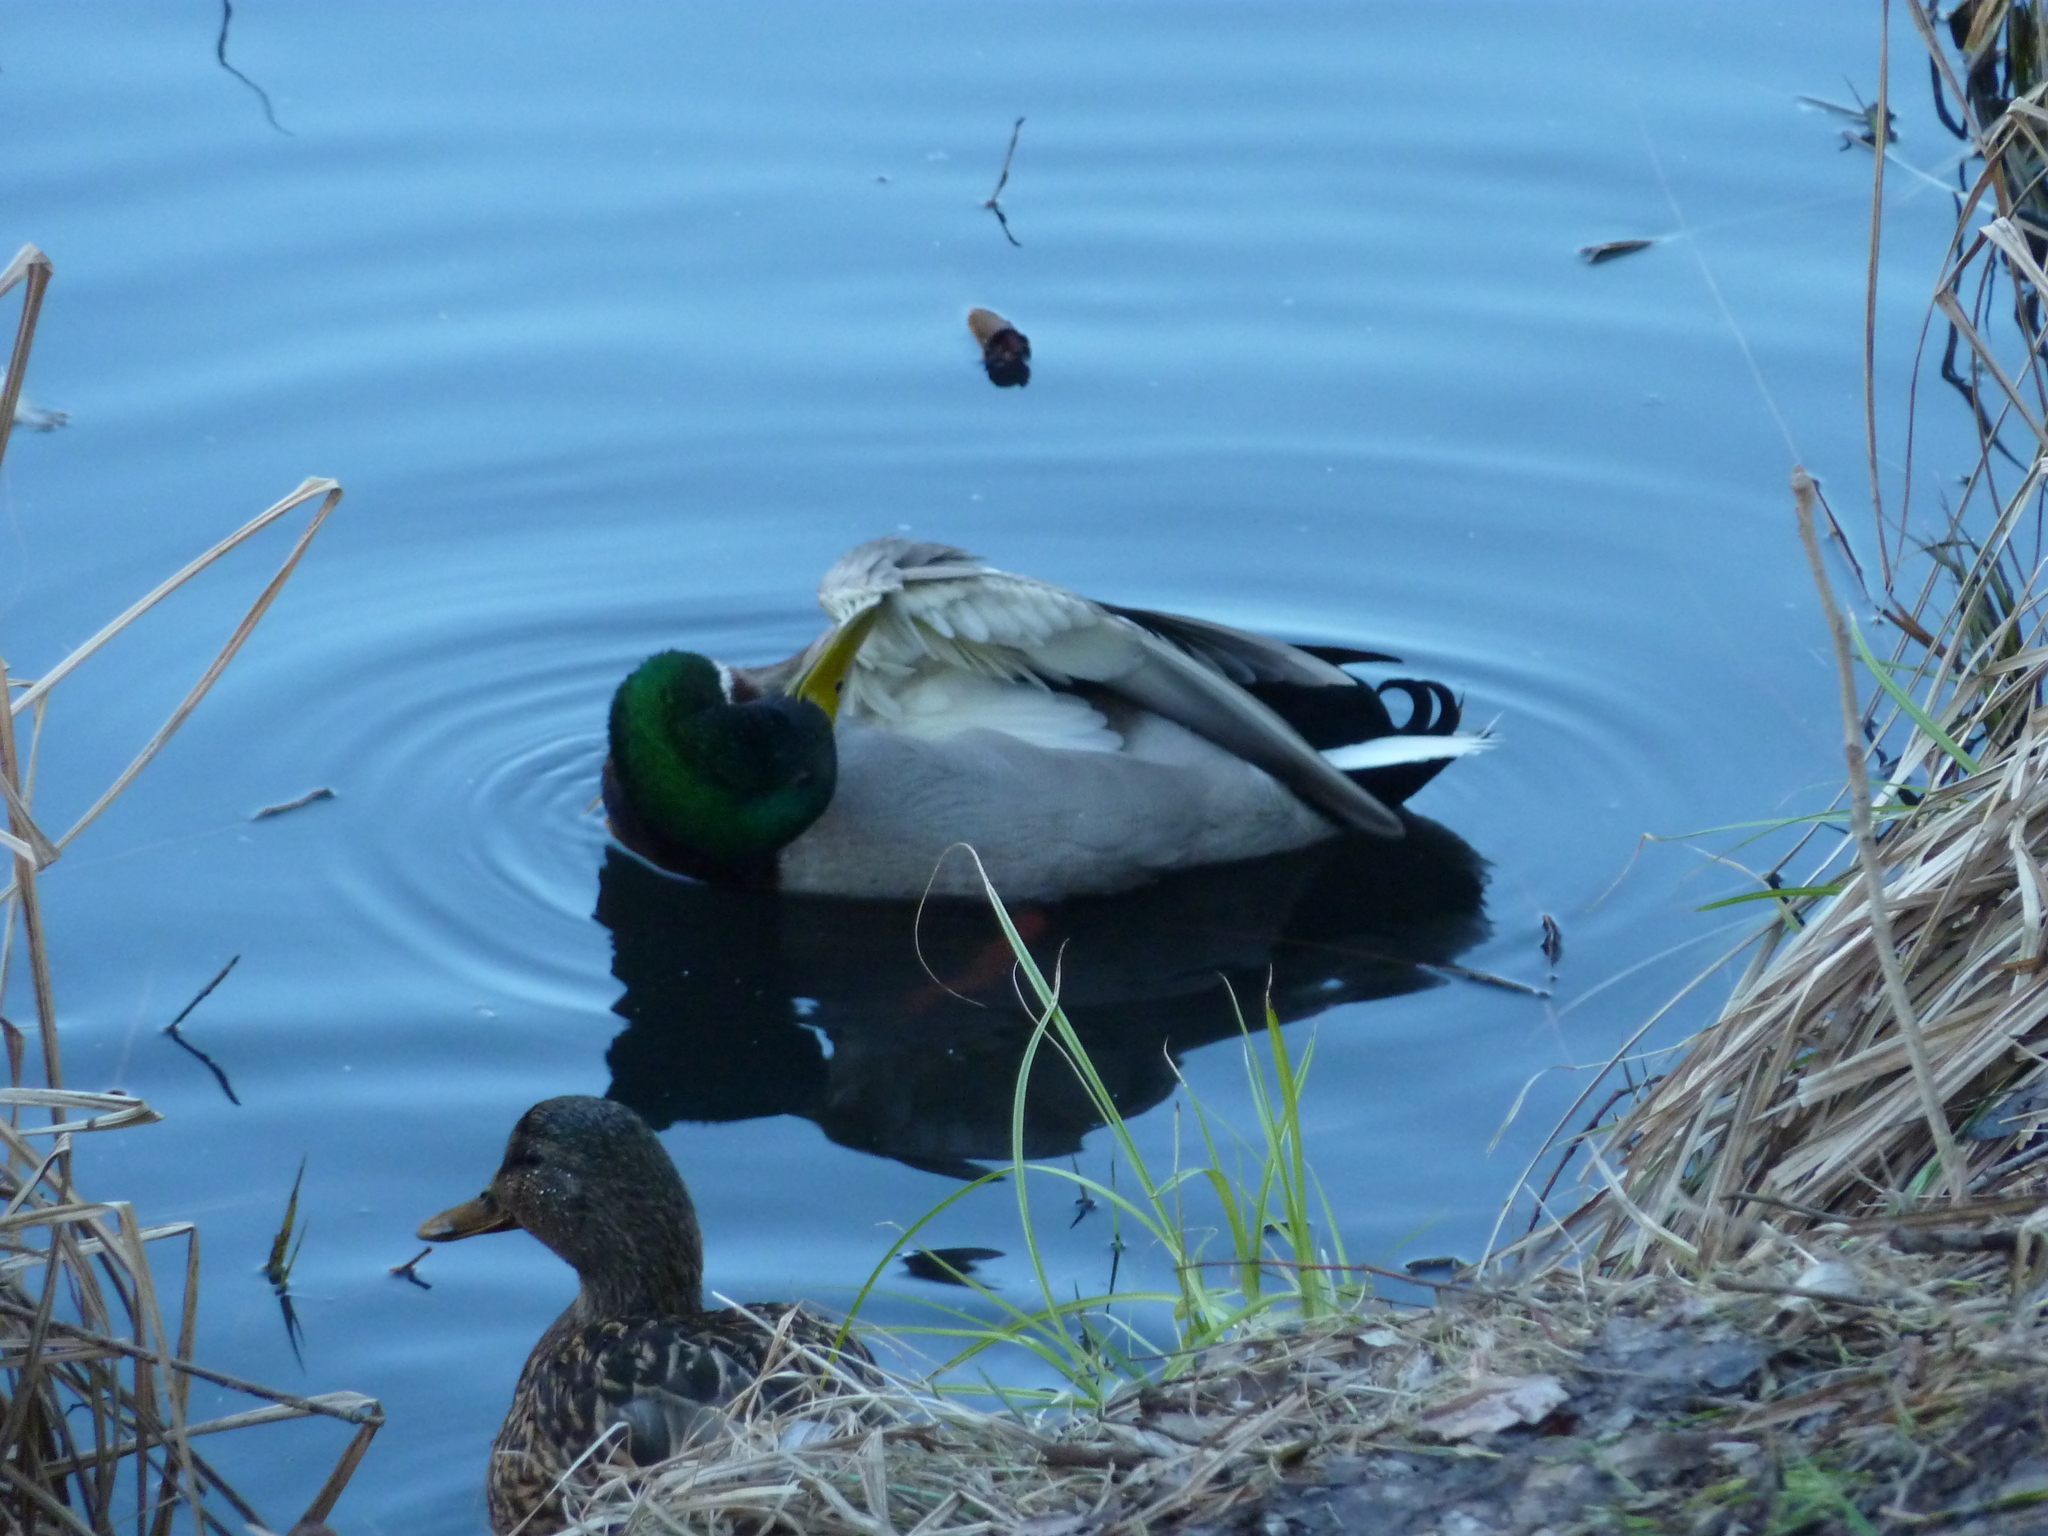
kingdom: Animalia
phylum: Chordata
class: Aves
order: Anseriformes
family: Anatidae
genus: Anas
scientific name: Anas platyrhynchos
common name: Mallard
